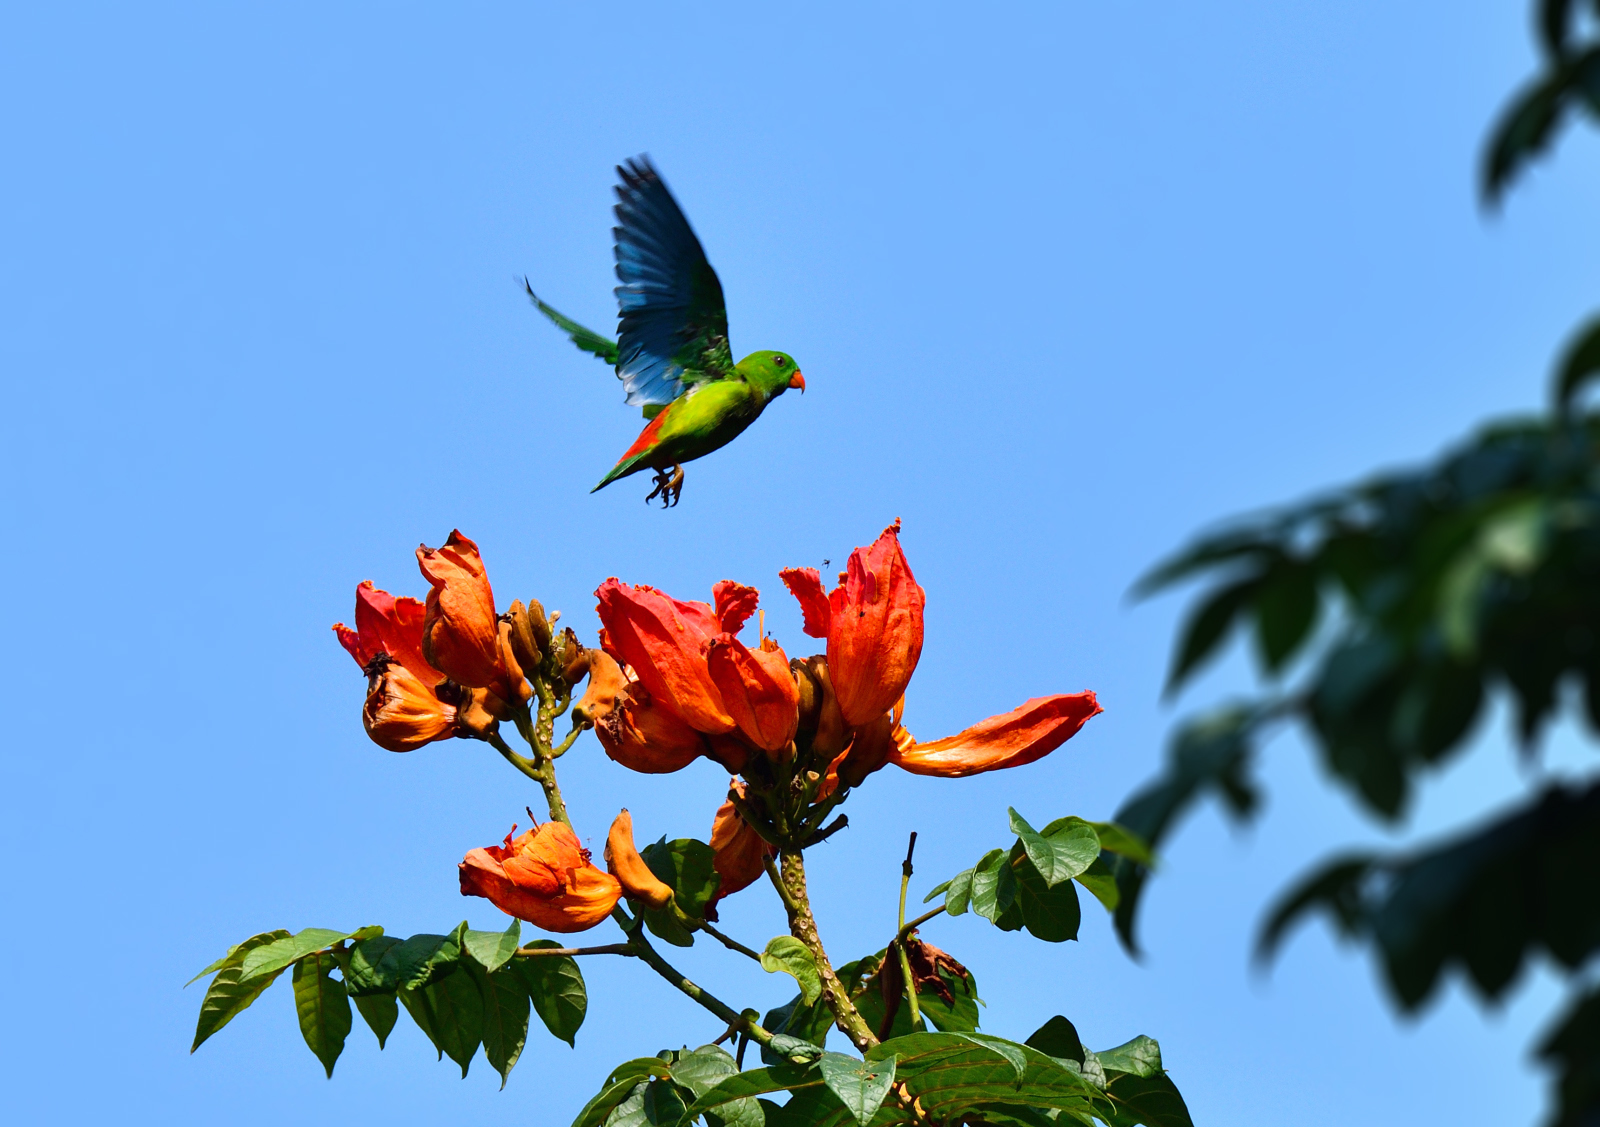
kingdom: Animalia
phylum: Chordata
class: Aves
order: Psittaciformes
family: Psittacidae
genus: Loriculus
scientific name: Loriculus vernalis
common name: Vernal hanging parrot
